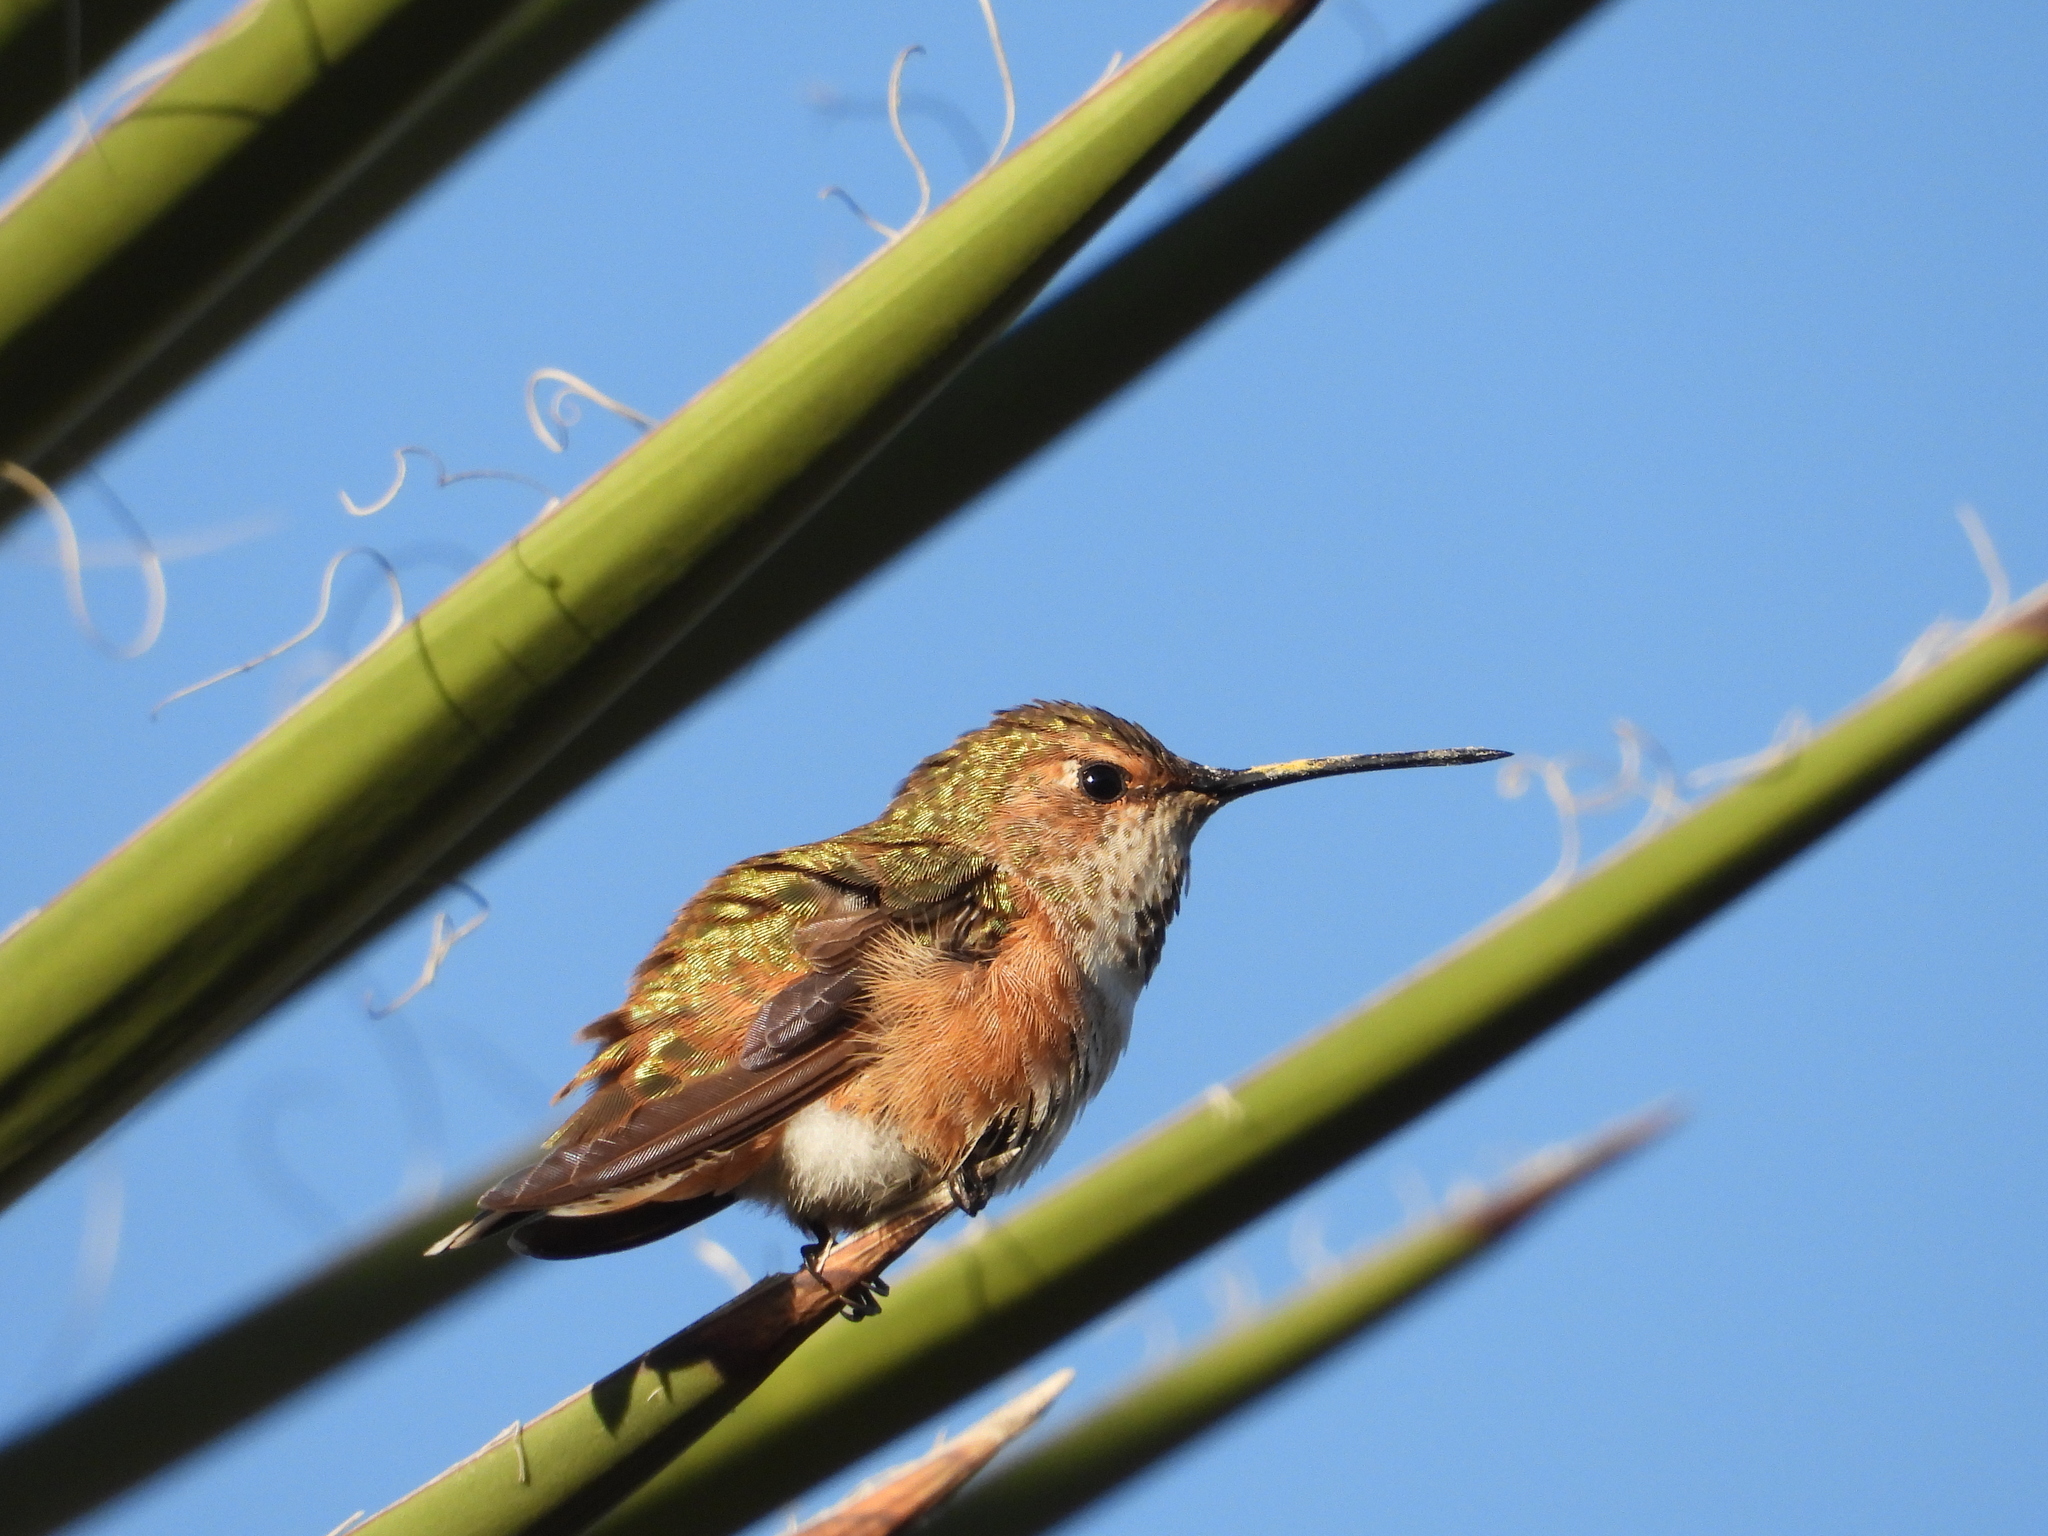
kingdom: Animalia
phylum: Chordata
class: Aves
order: Apodiformes
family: Trochilidae
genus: Selasphorus
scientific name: Selasphorus rufus
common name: Rufous hummingbird
